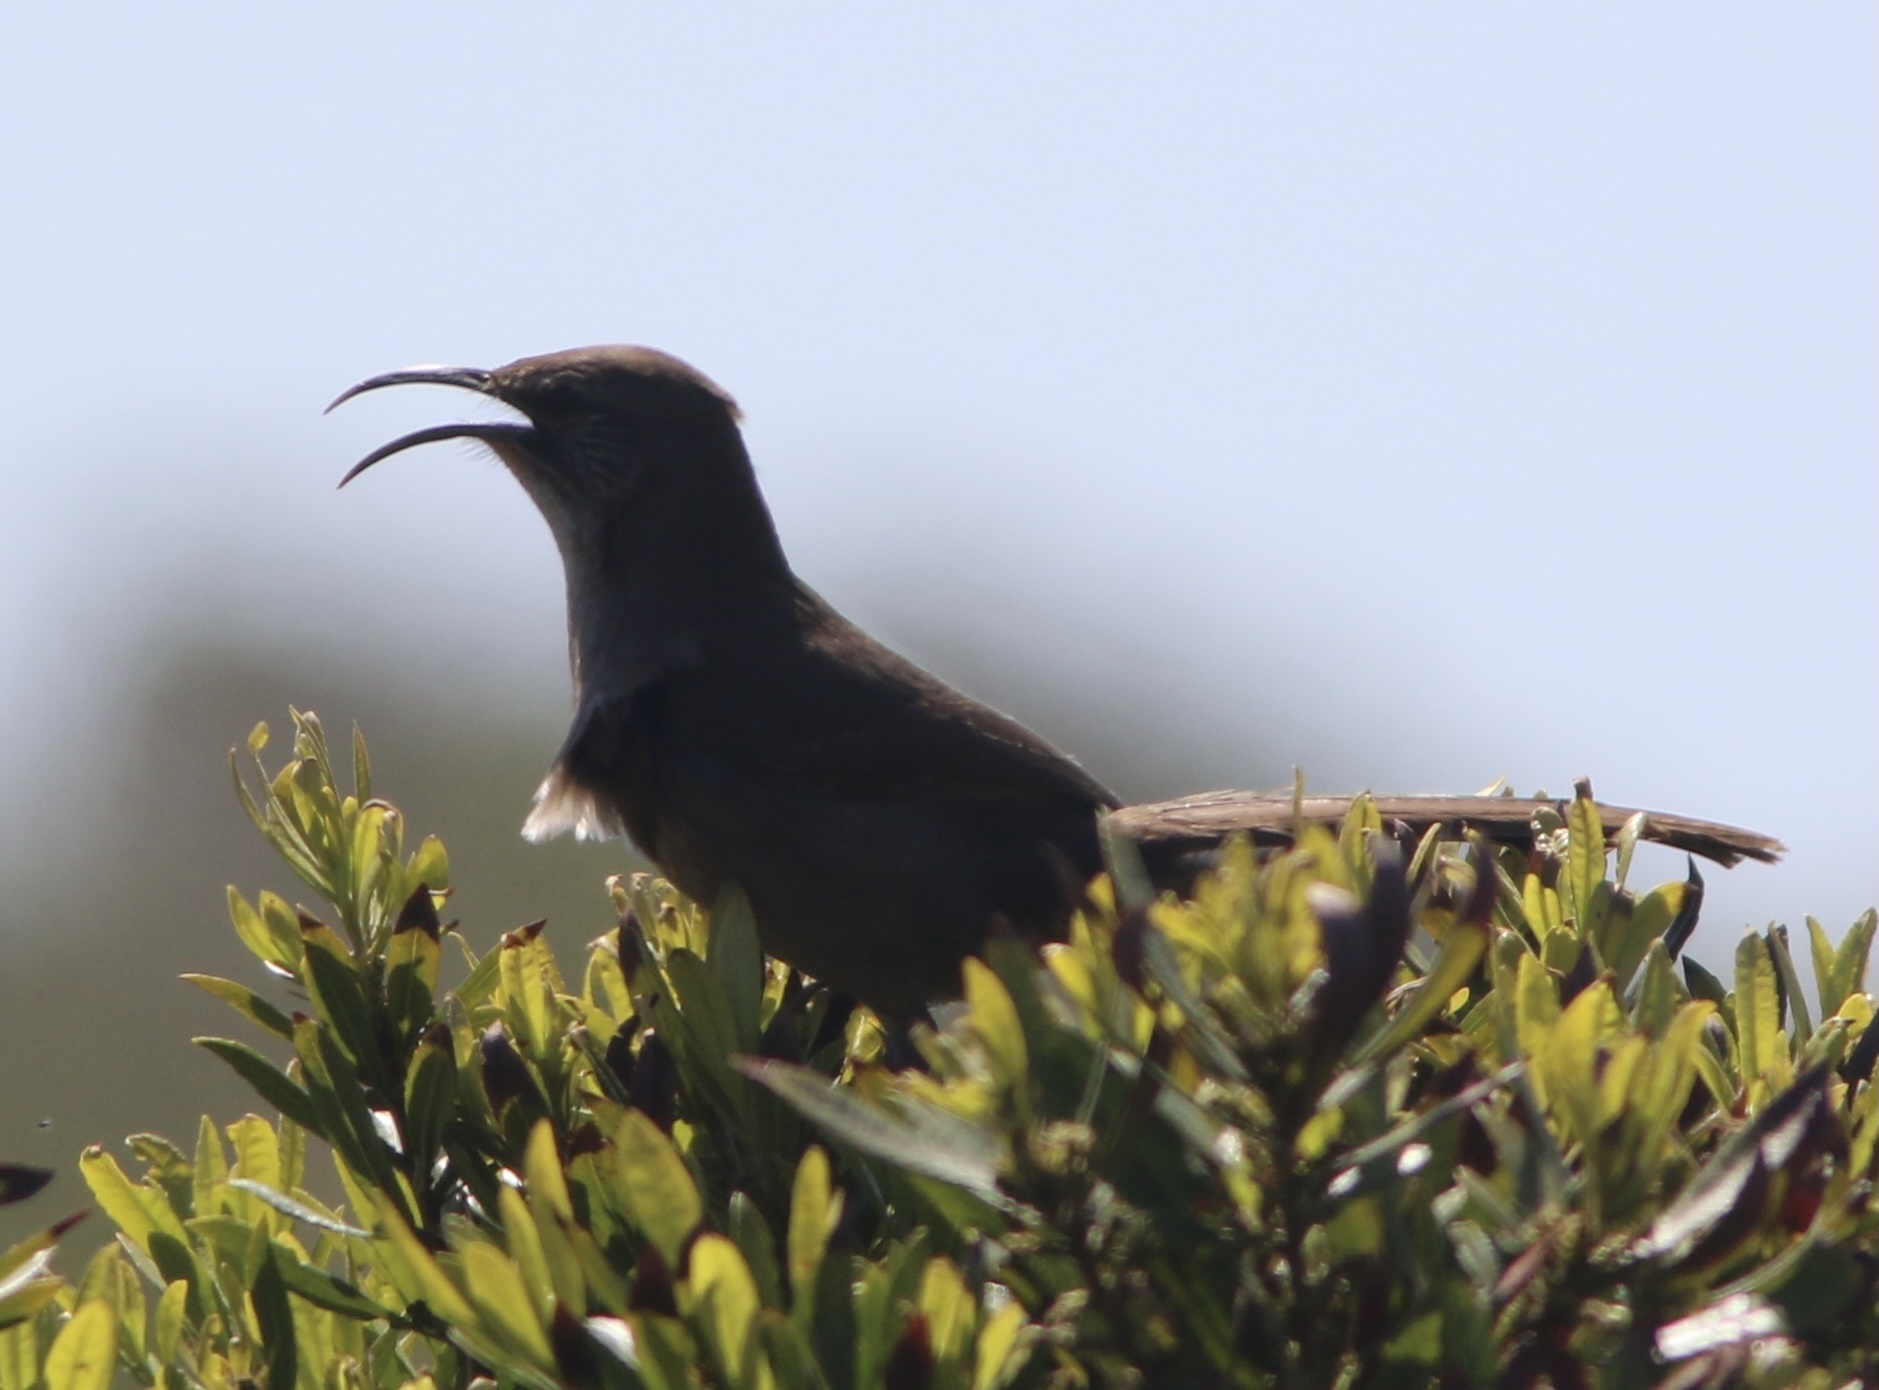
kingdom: Animalia
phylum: Chordata
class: Aves
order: Passeriformes
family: Mimidae
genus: Toxostoma
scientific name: Toxostoma redivivum
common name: California thrasher
